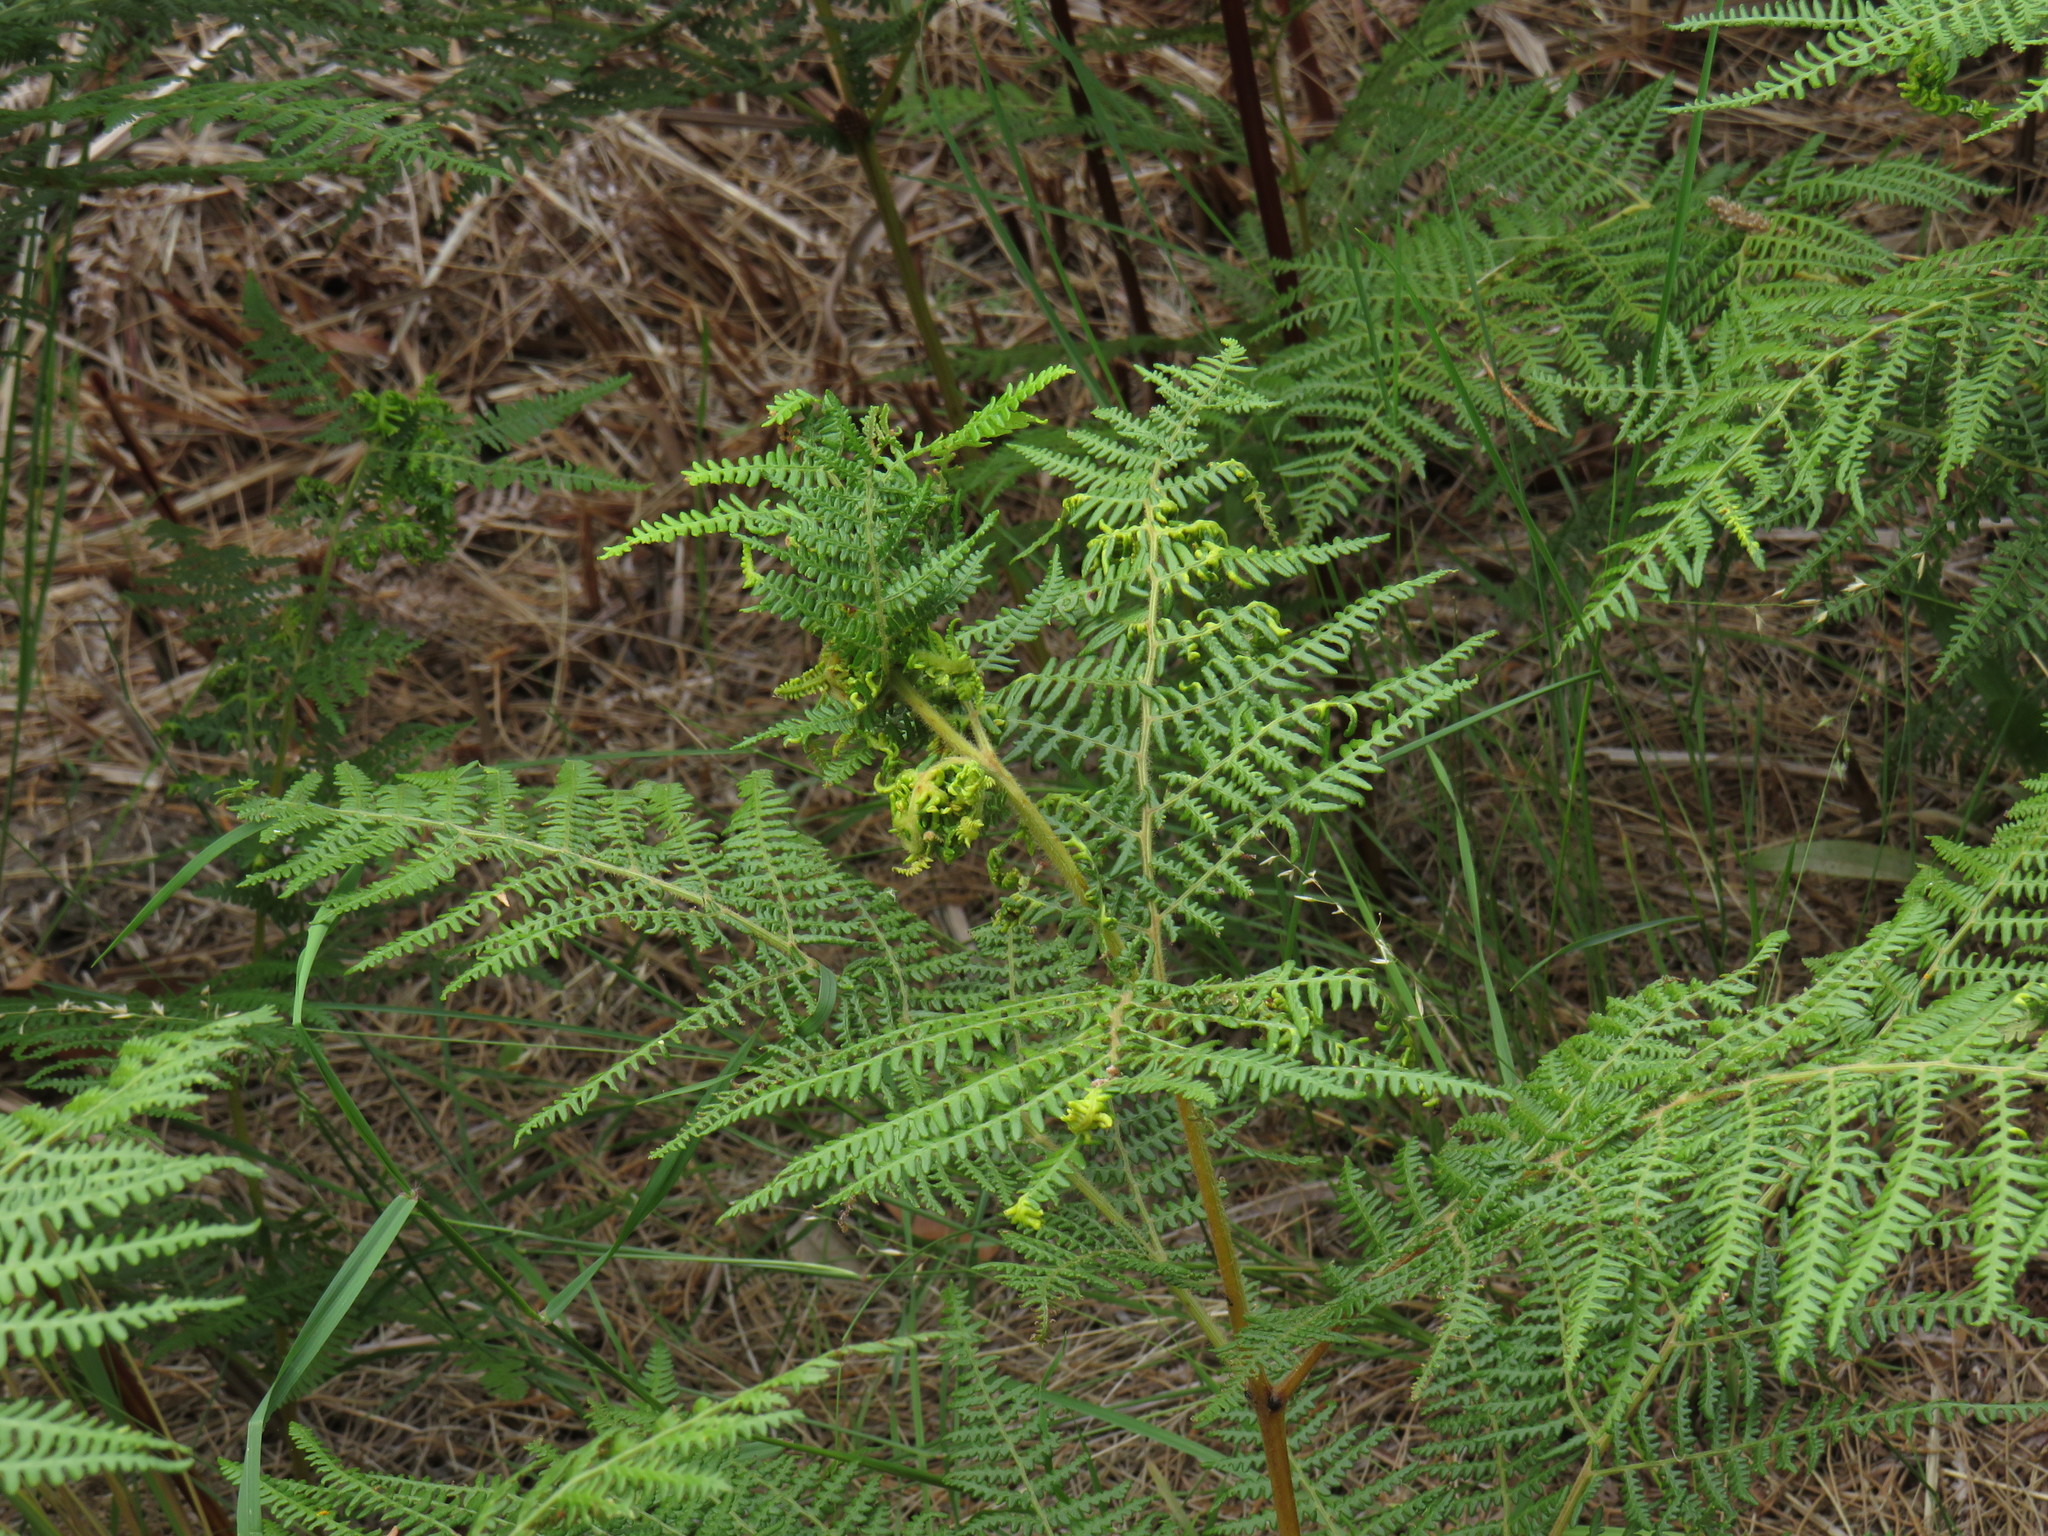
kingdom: Plantae
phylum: Tracheophyta
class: Polypodiopsida
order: Polypodiales
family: Dennstaedtiaceae
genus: Pteridium
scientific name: Pteridium aquilinum
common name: Bracken
